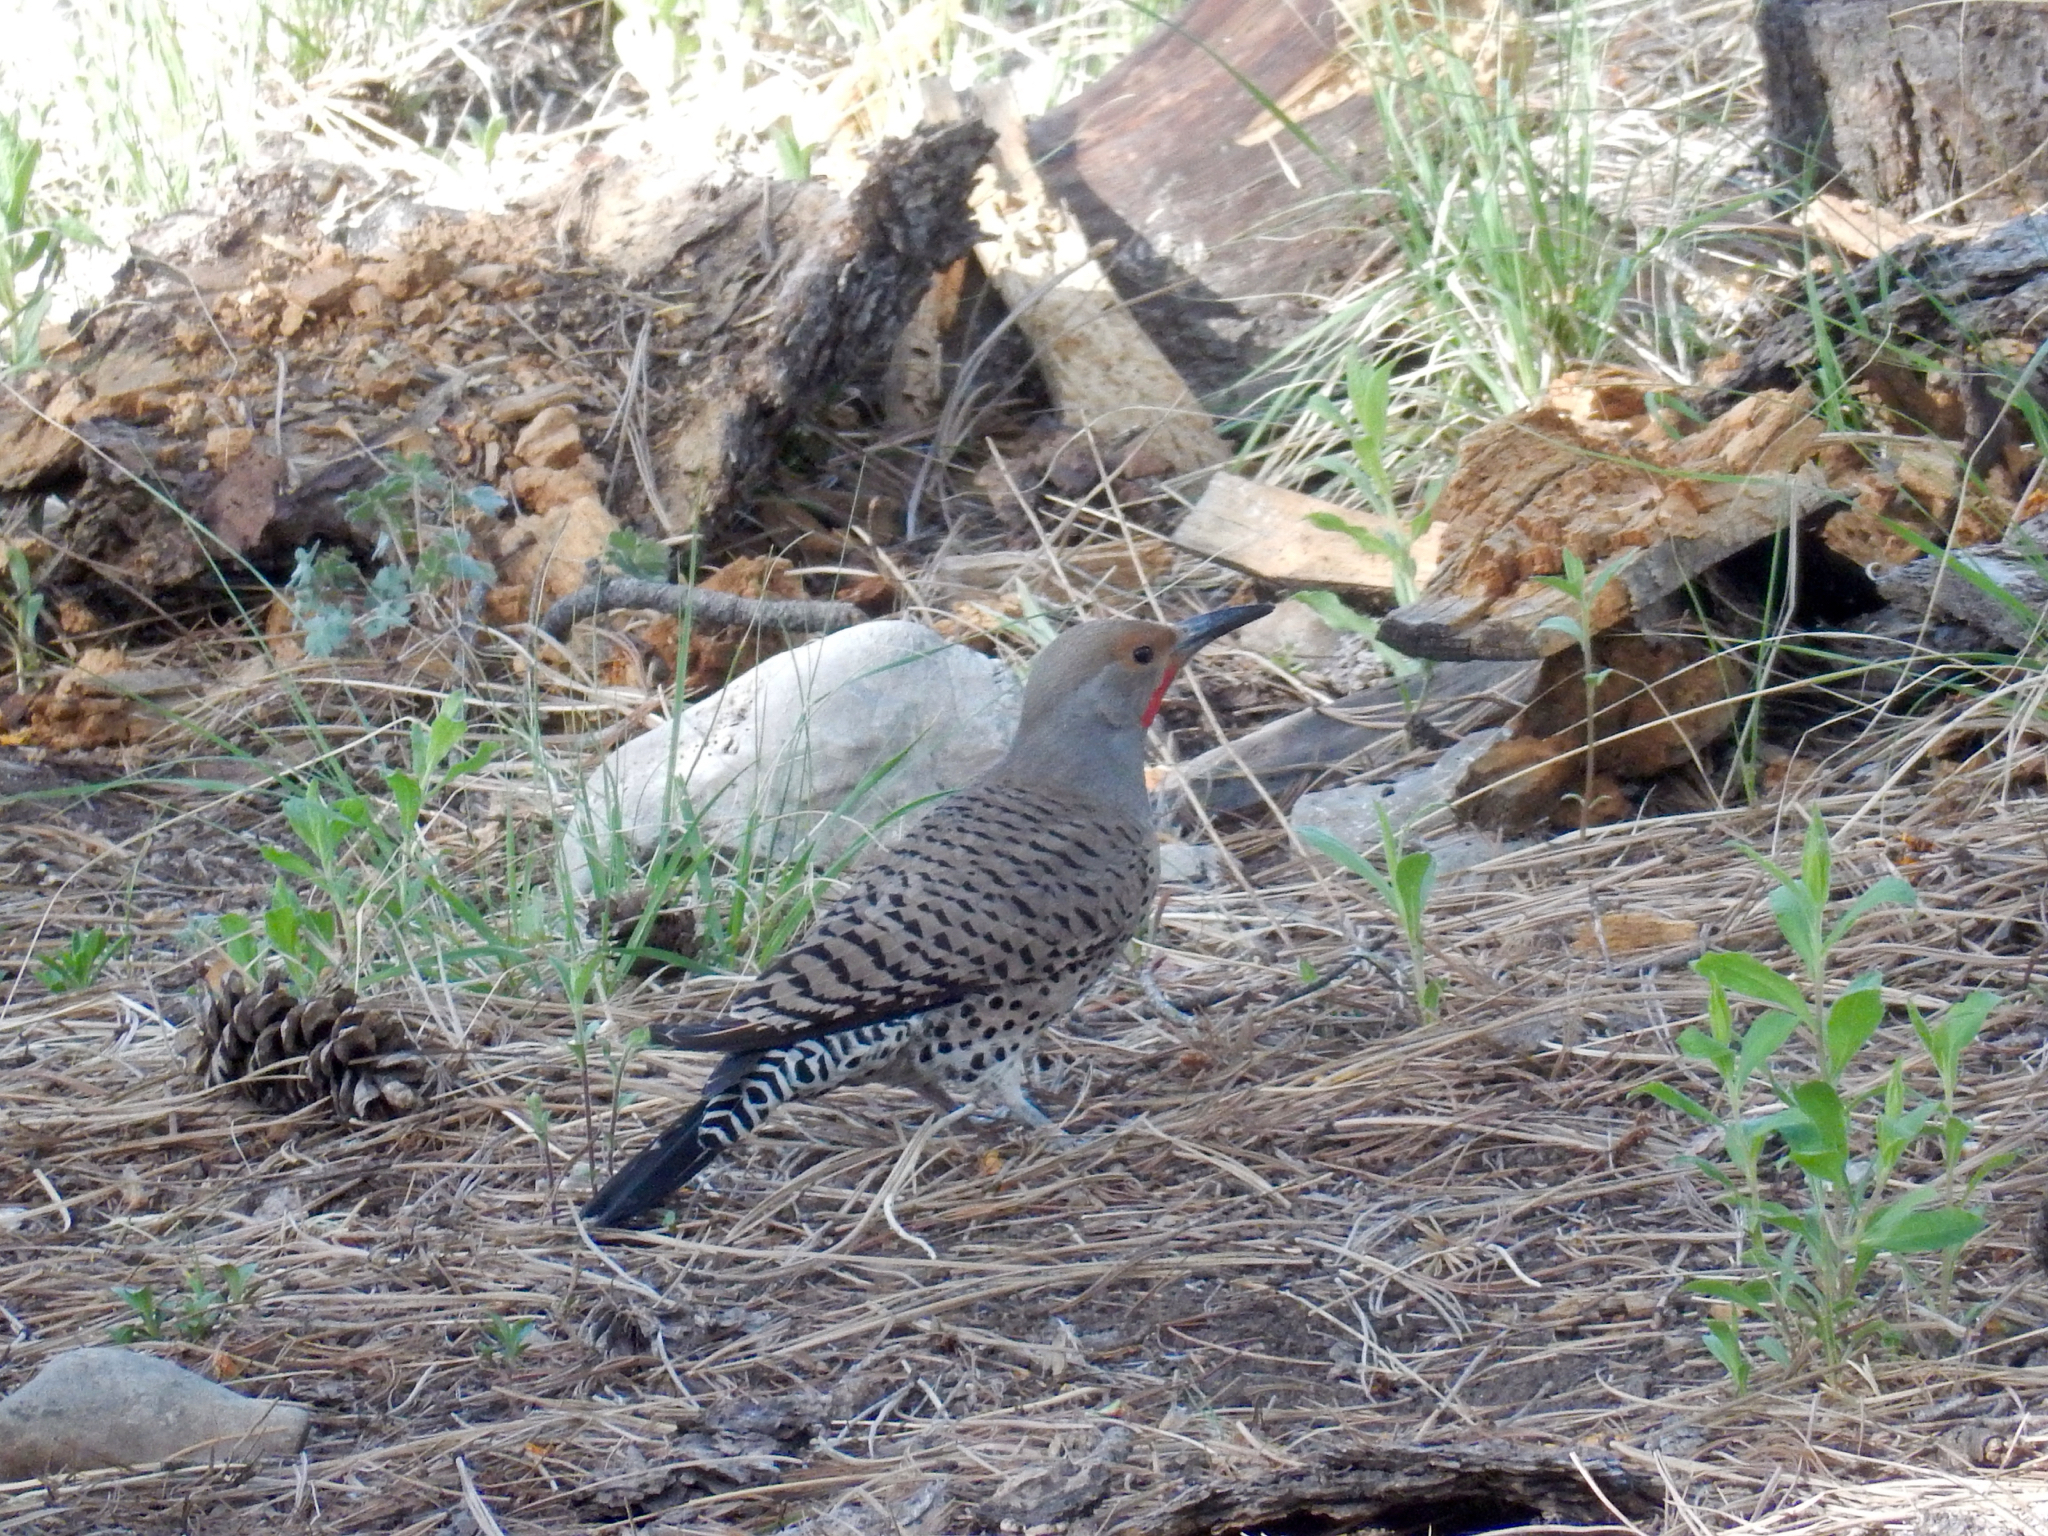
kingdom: Animalia
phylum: Chordata
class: Aves
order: Piciformes
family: Picidae
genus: Colaptes
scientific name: Colaptes auratus
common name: Northern flicker
